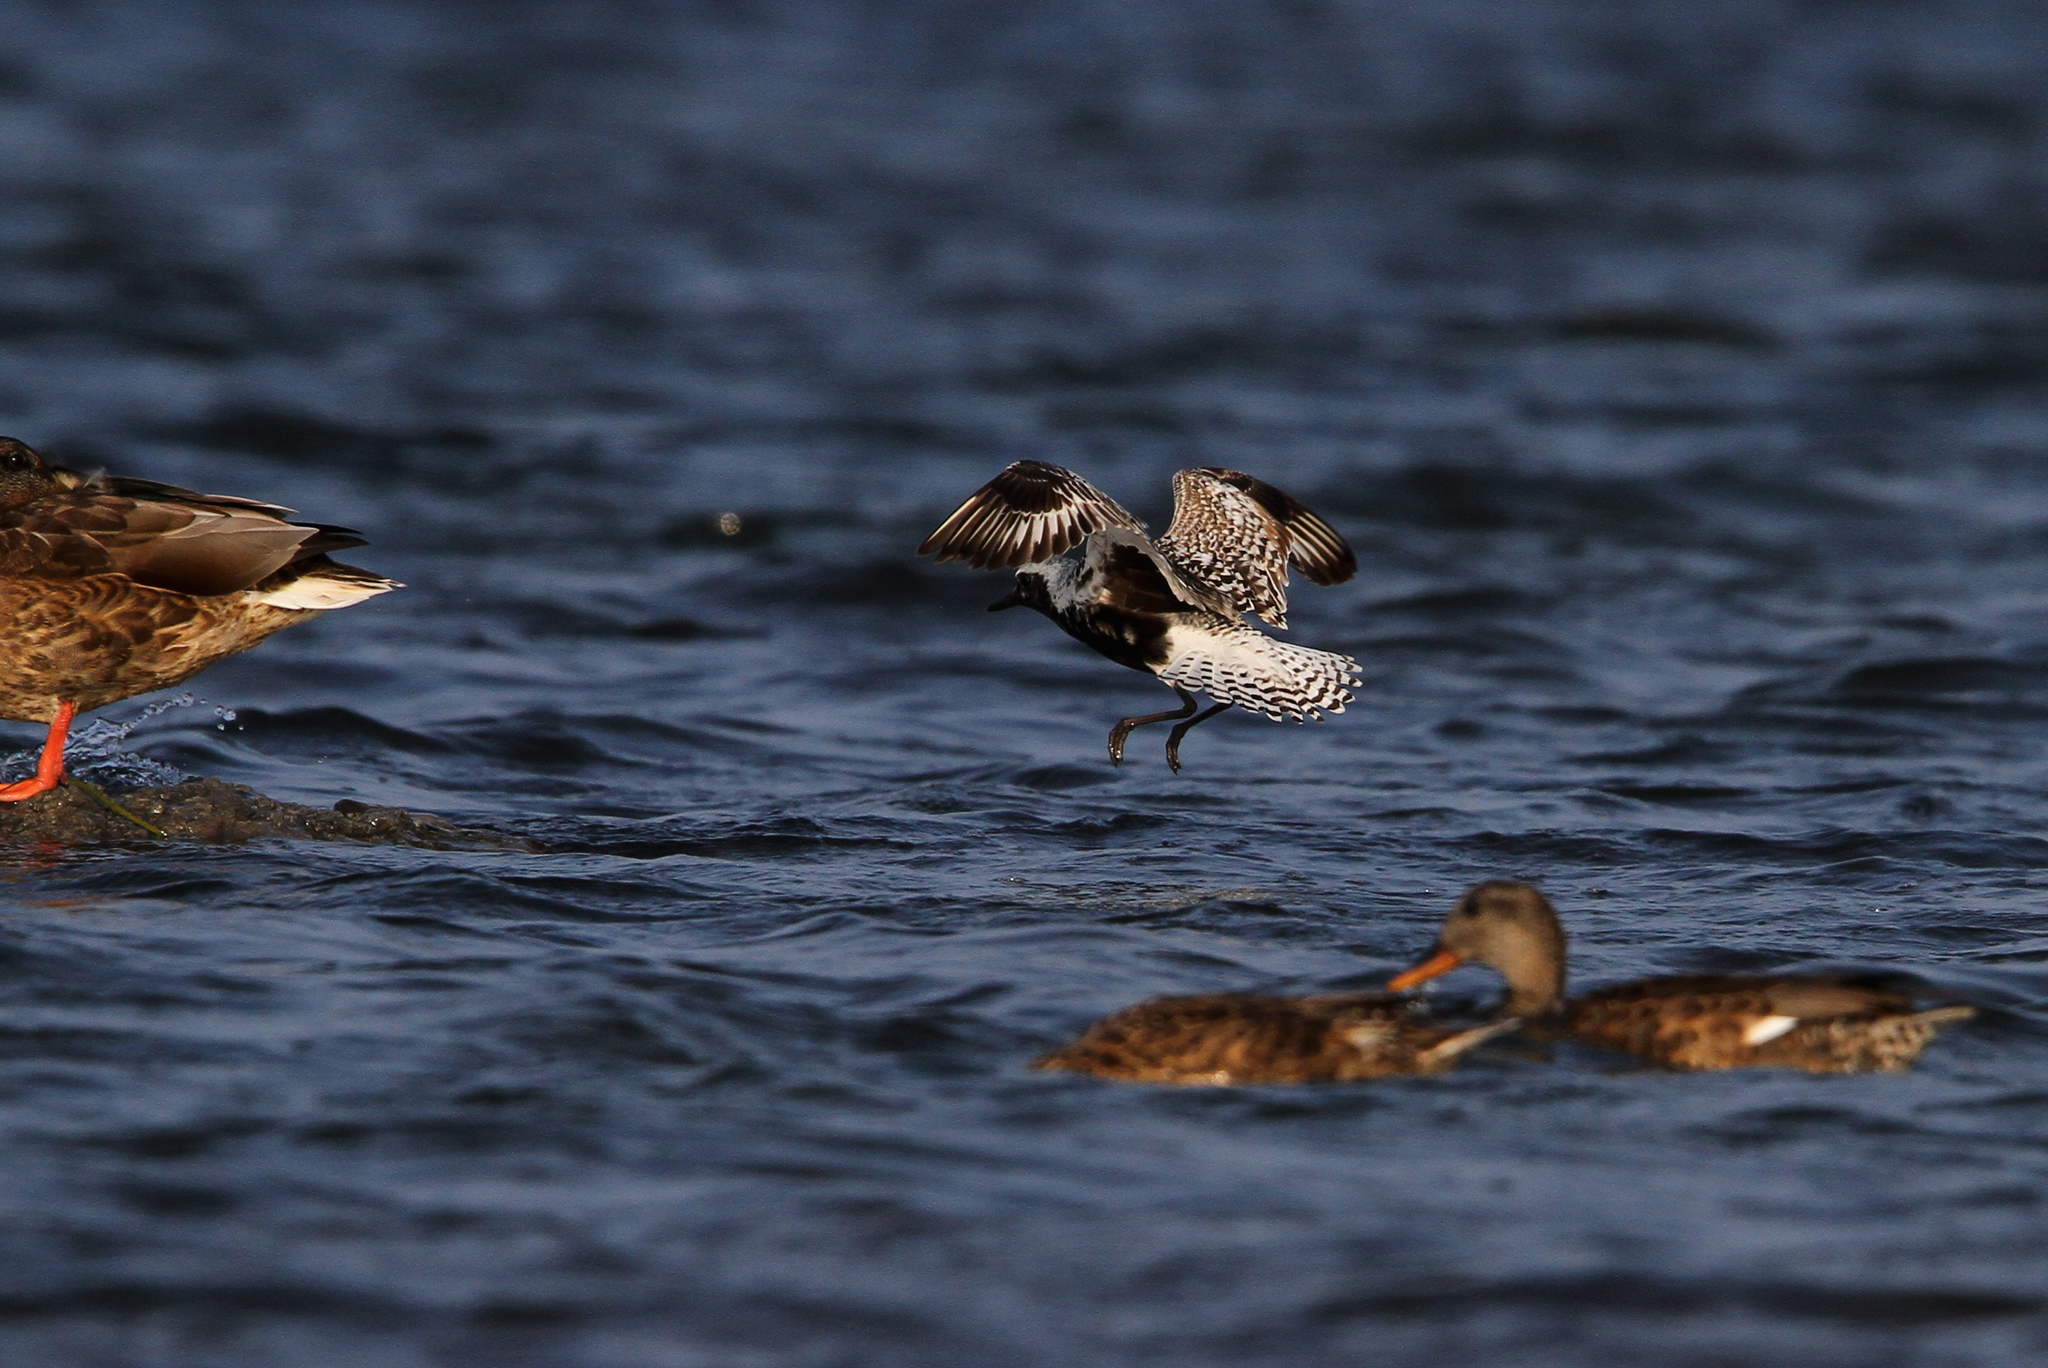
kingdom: Animalia
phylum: Chordata
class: Aves
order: Charadriiformes
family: Charadriidae
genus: Pluvialis
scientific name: Pluvialis squatarola
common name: Grey plover
